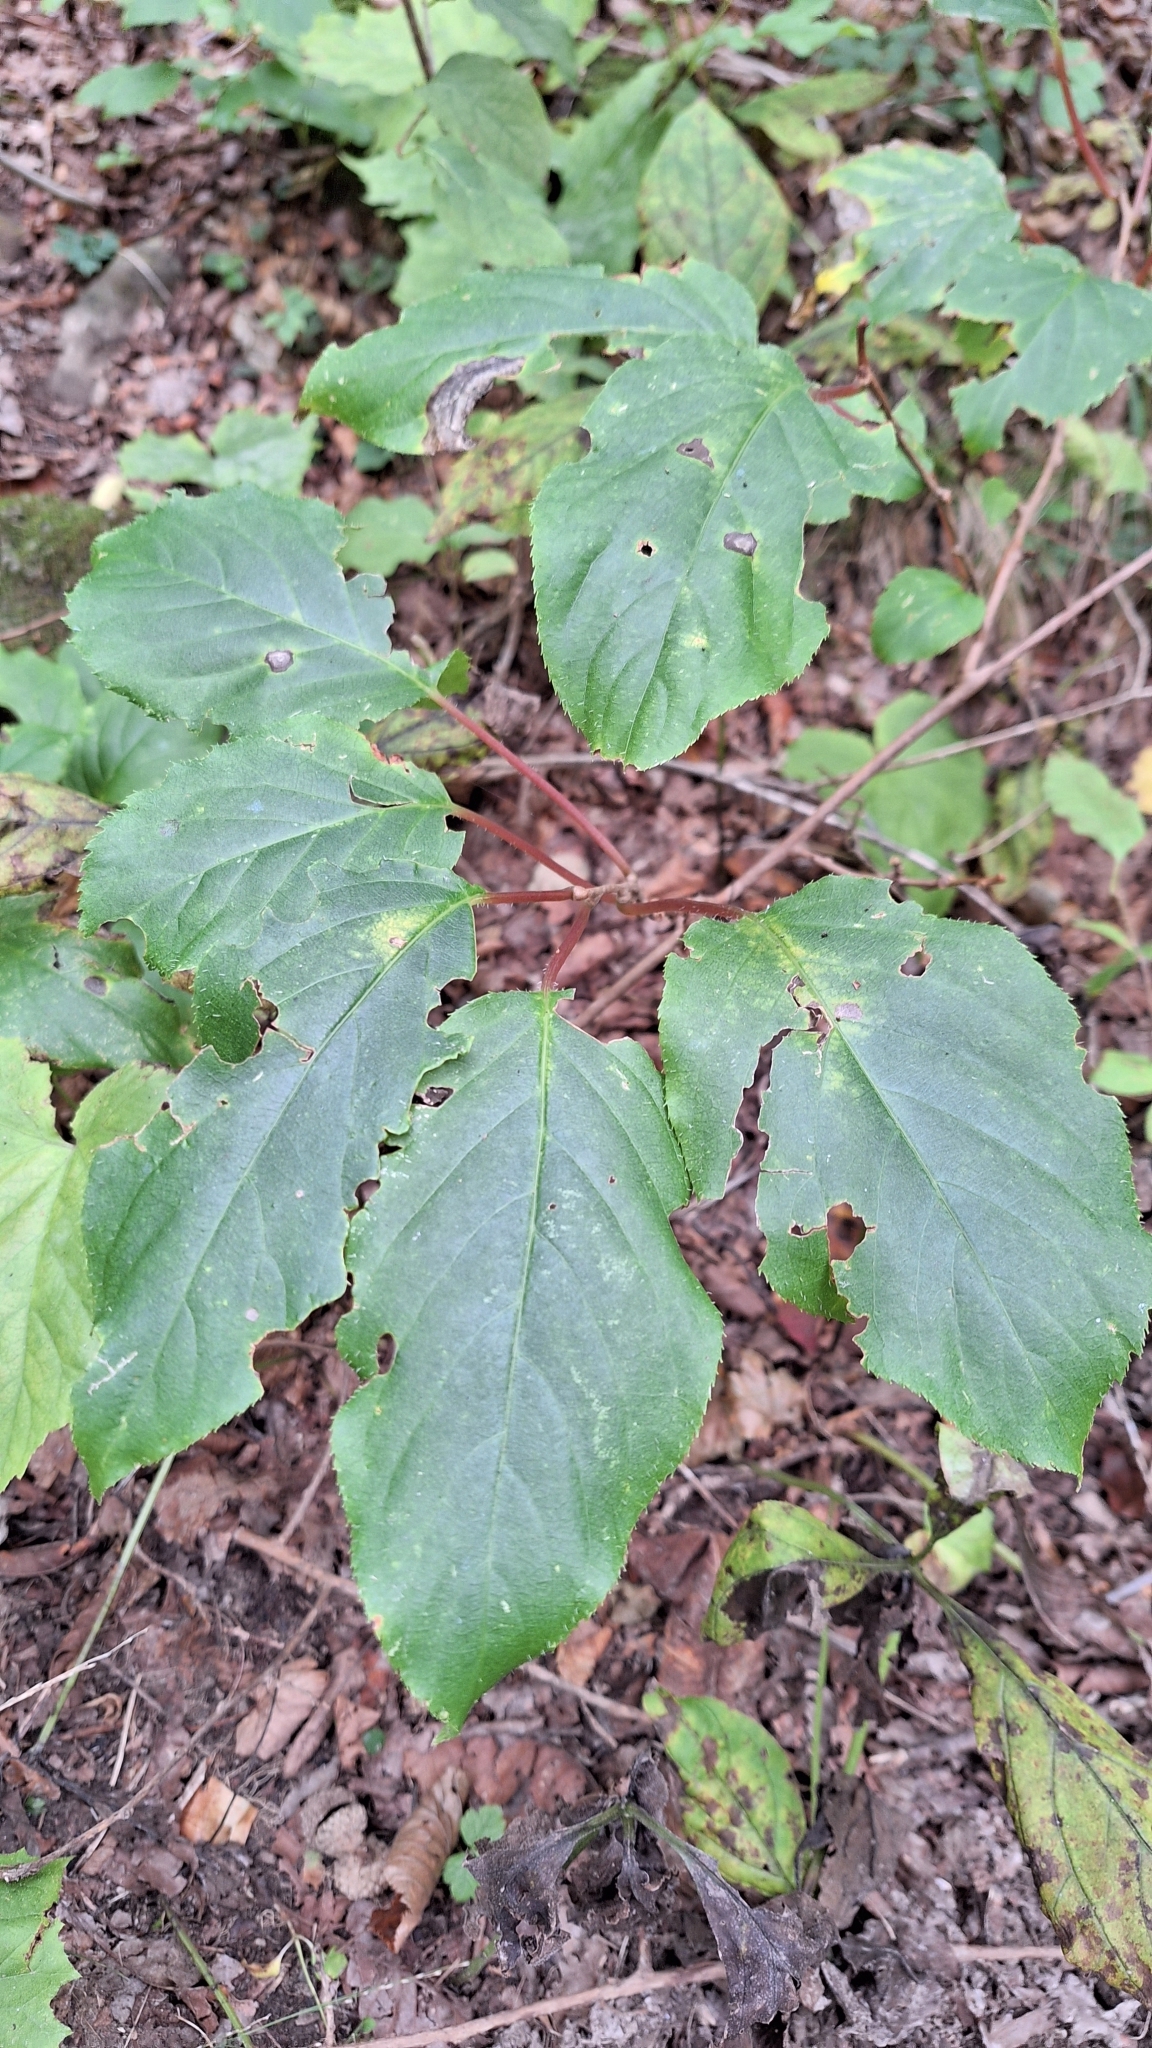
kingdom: Plantae
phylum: Tracheophyta
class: Magnoliopsida
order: Ericales
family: Actinidiaceae
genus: Actinidia
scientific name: Actinidia arguta
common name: Tara vine
